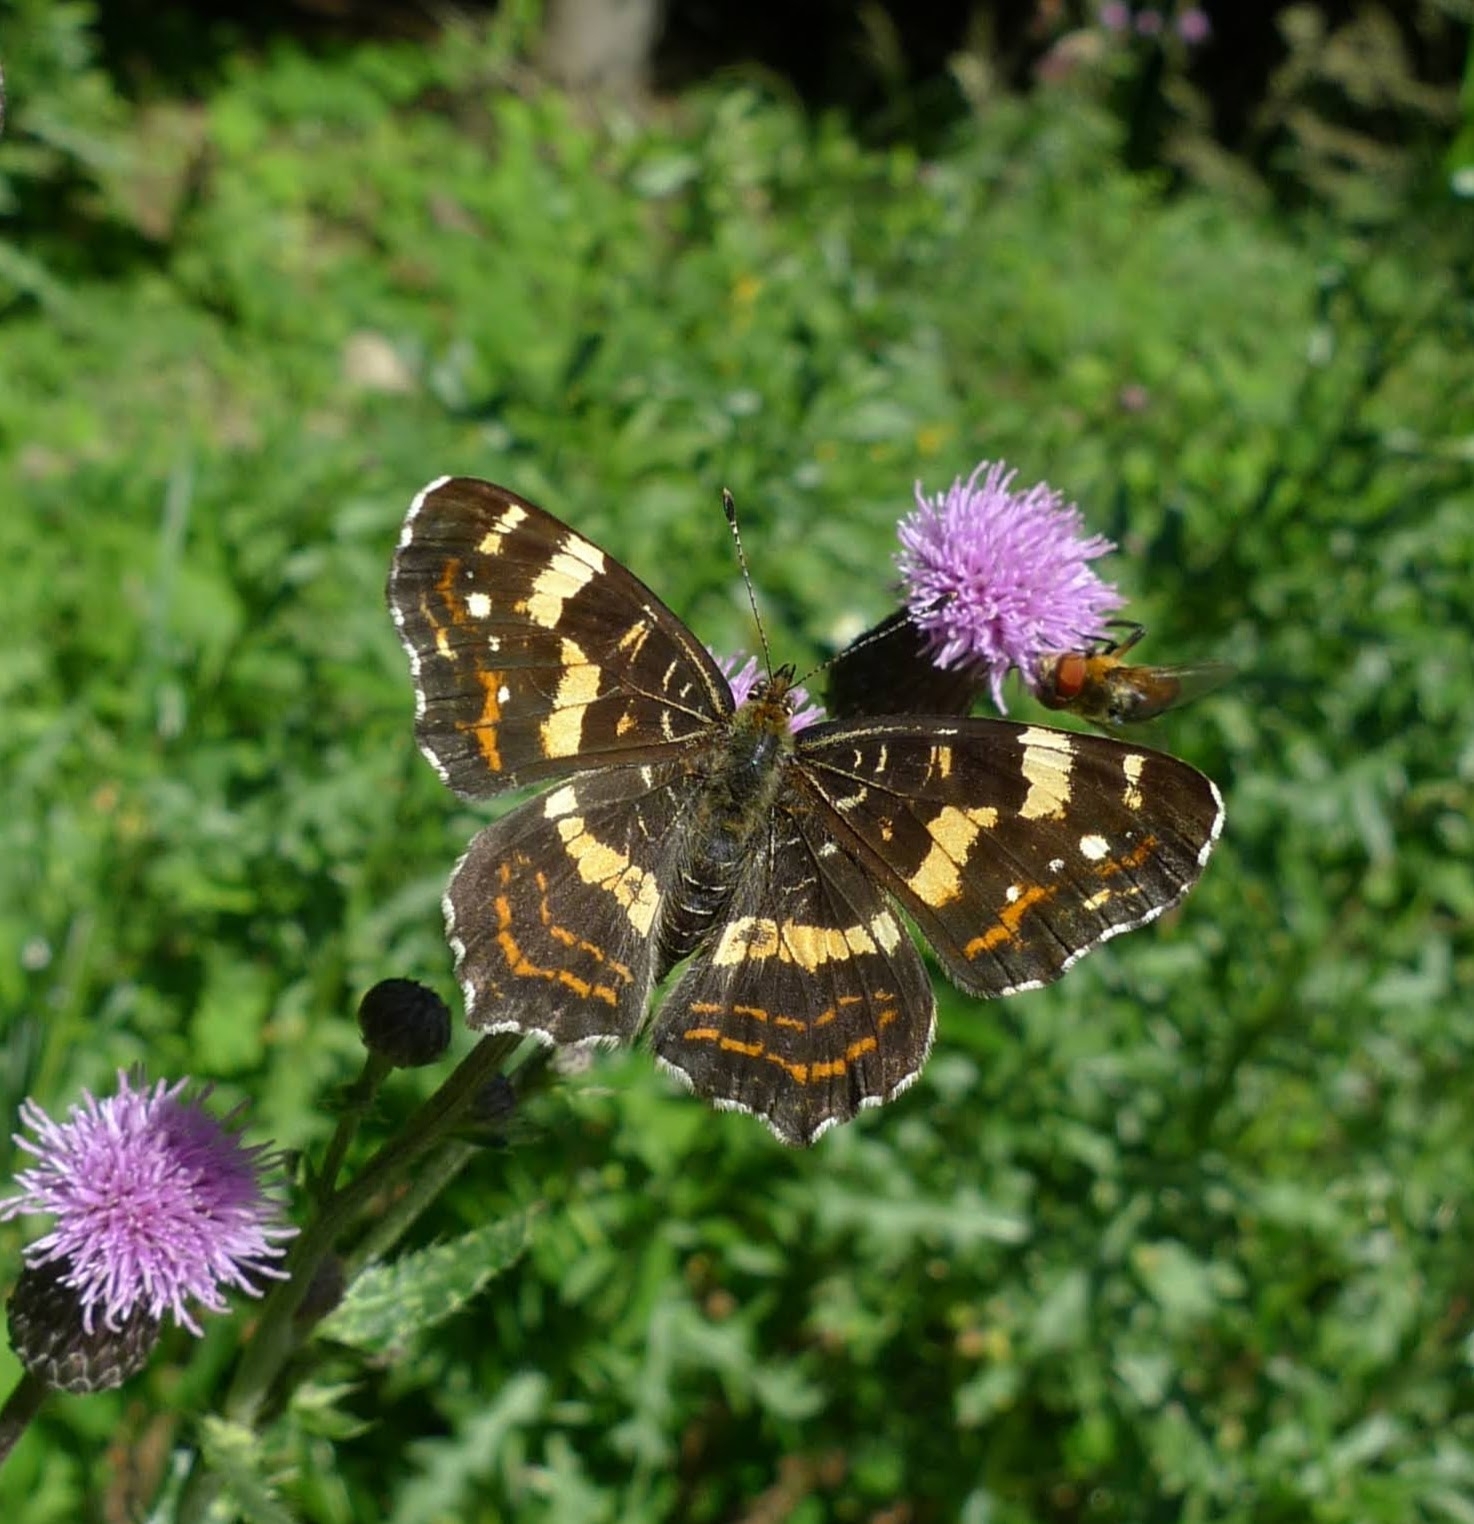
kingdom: Animalia
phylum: Arthropoda
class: Insecta
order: Lepidoptera
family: Nymphalidae
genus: Araschnia
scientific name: Araschnia levana
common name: Map butterfly
